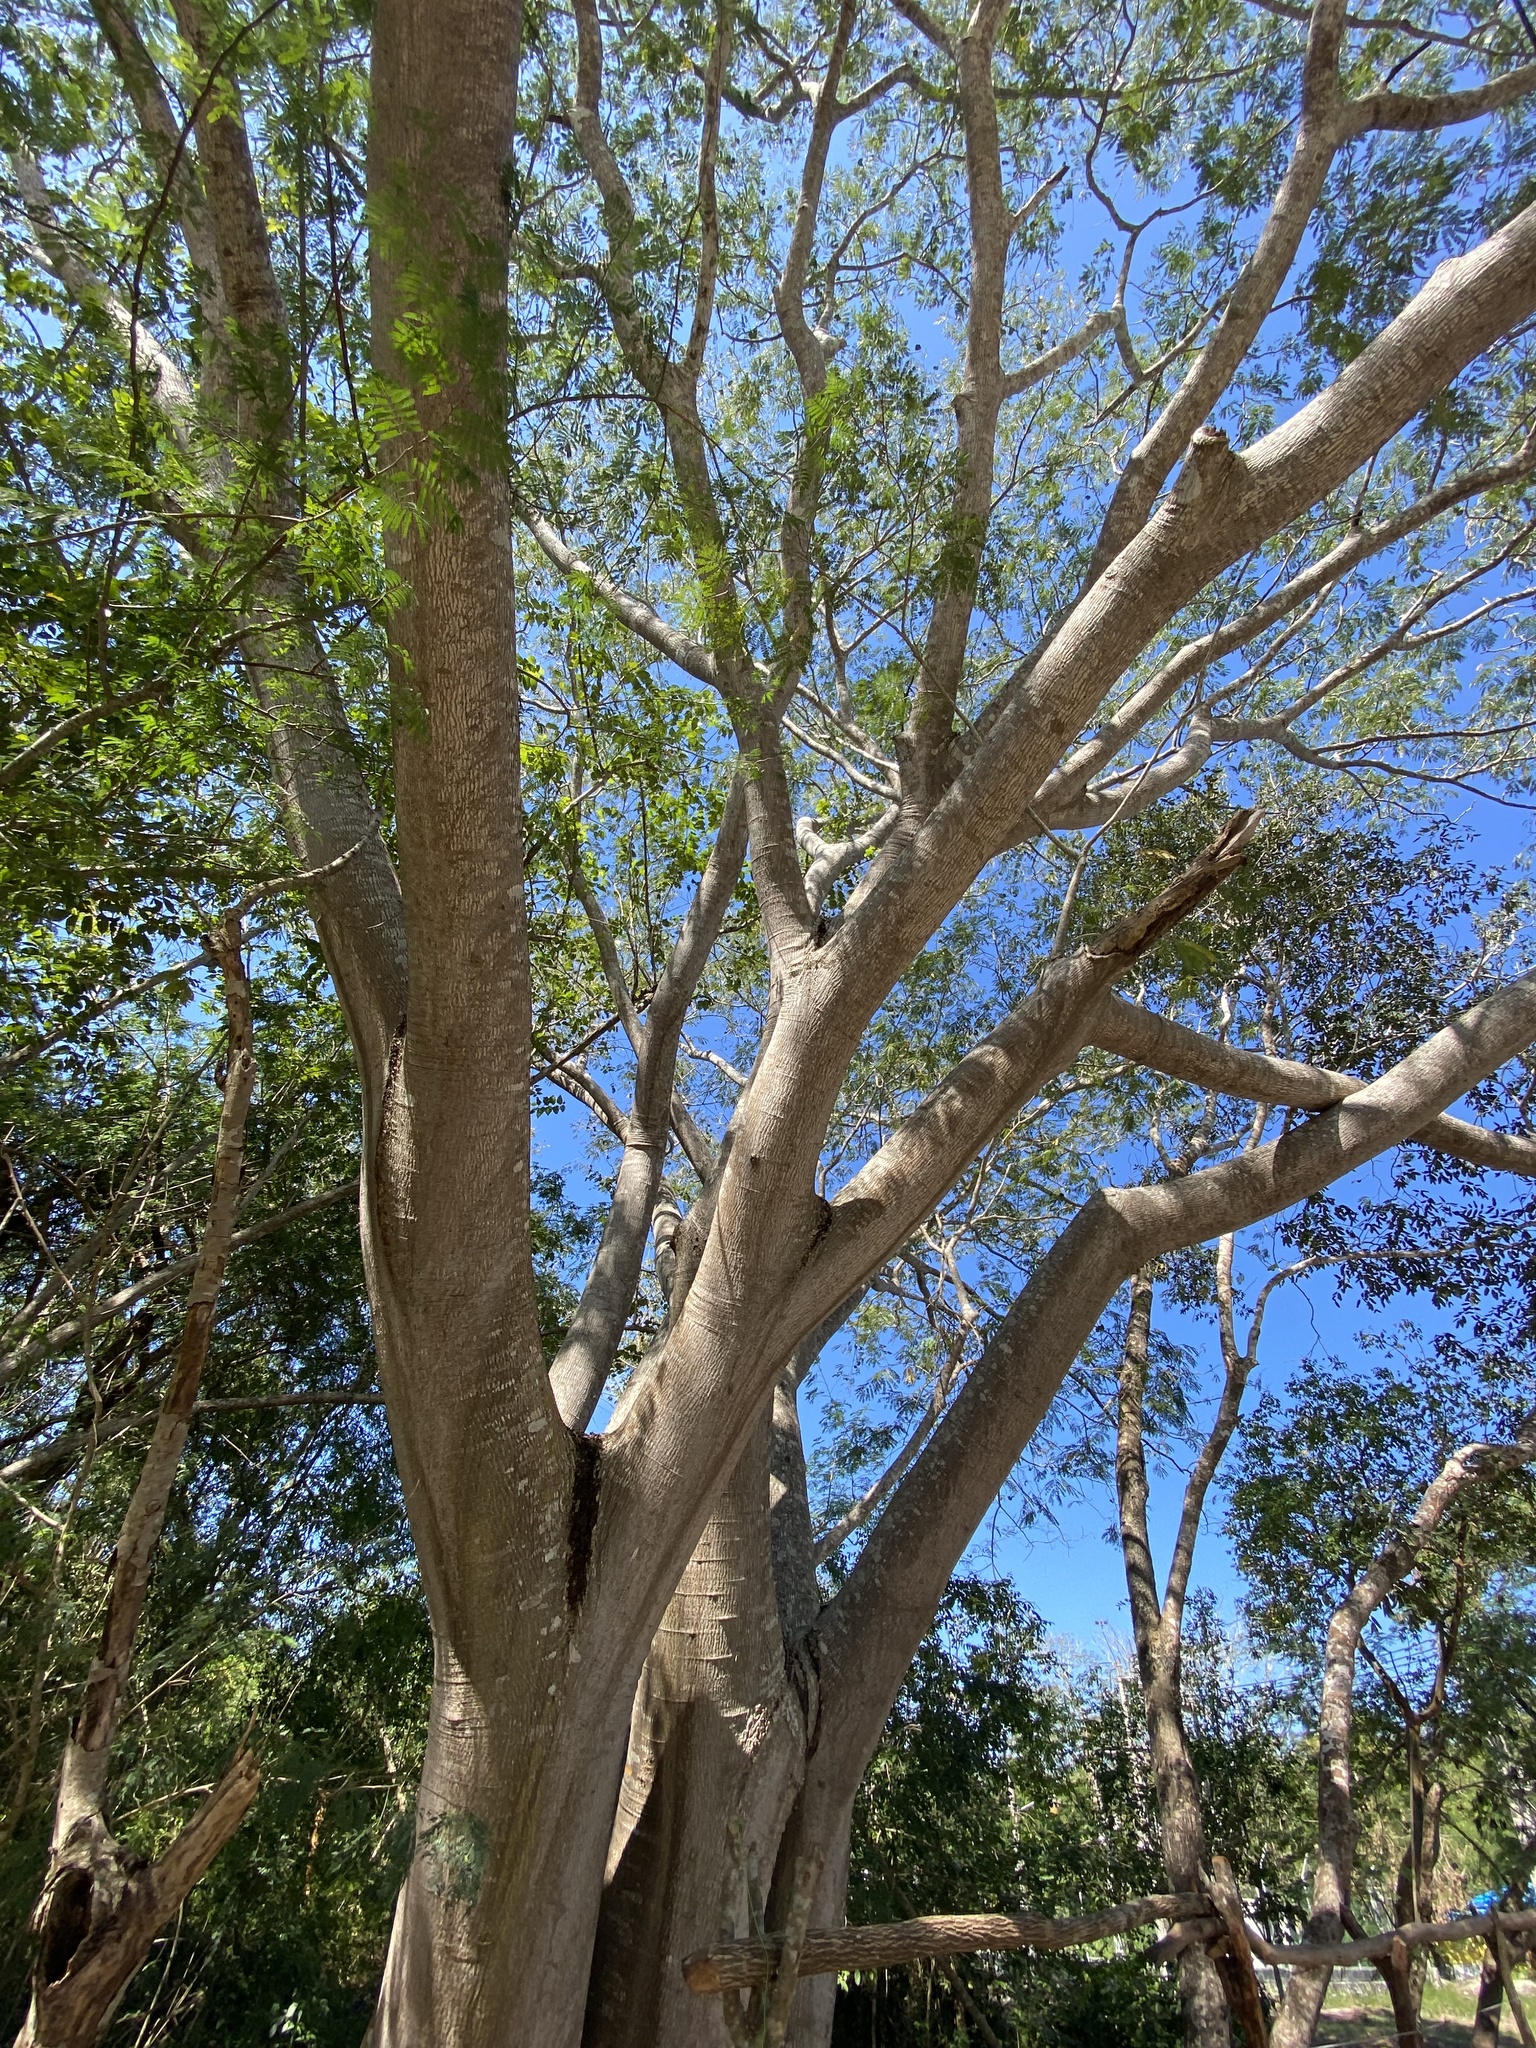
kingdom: Plantae
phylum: Tracheophyta
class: Magnoliopsida
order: Fabales
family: Fabaceae
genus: Enterolobium
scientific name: Enterolobium cyclocarpum
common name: Ear tree
